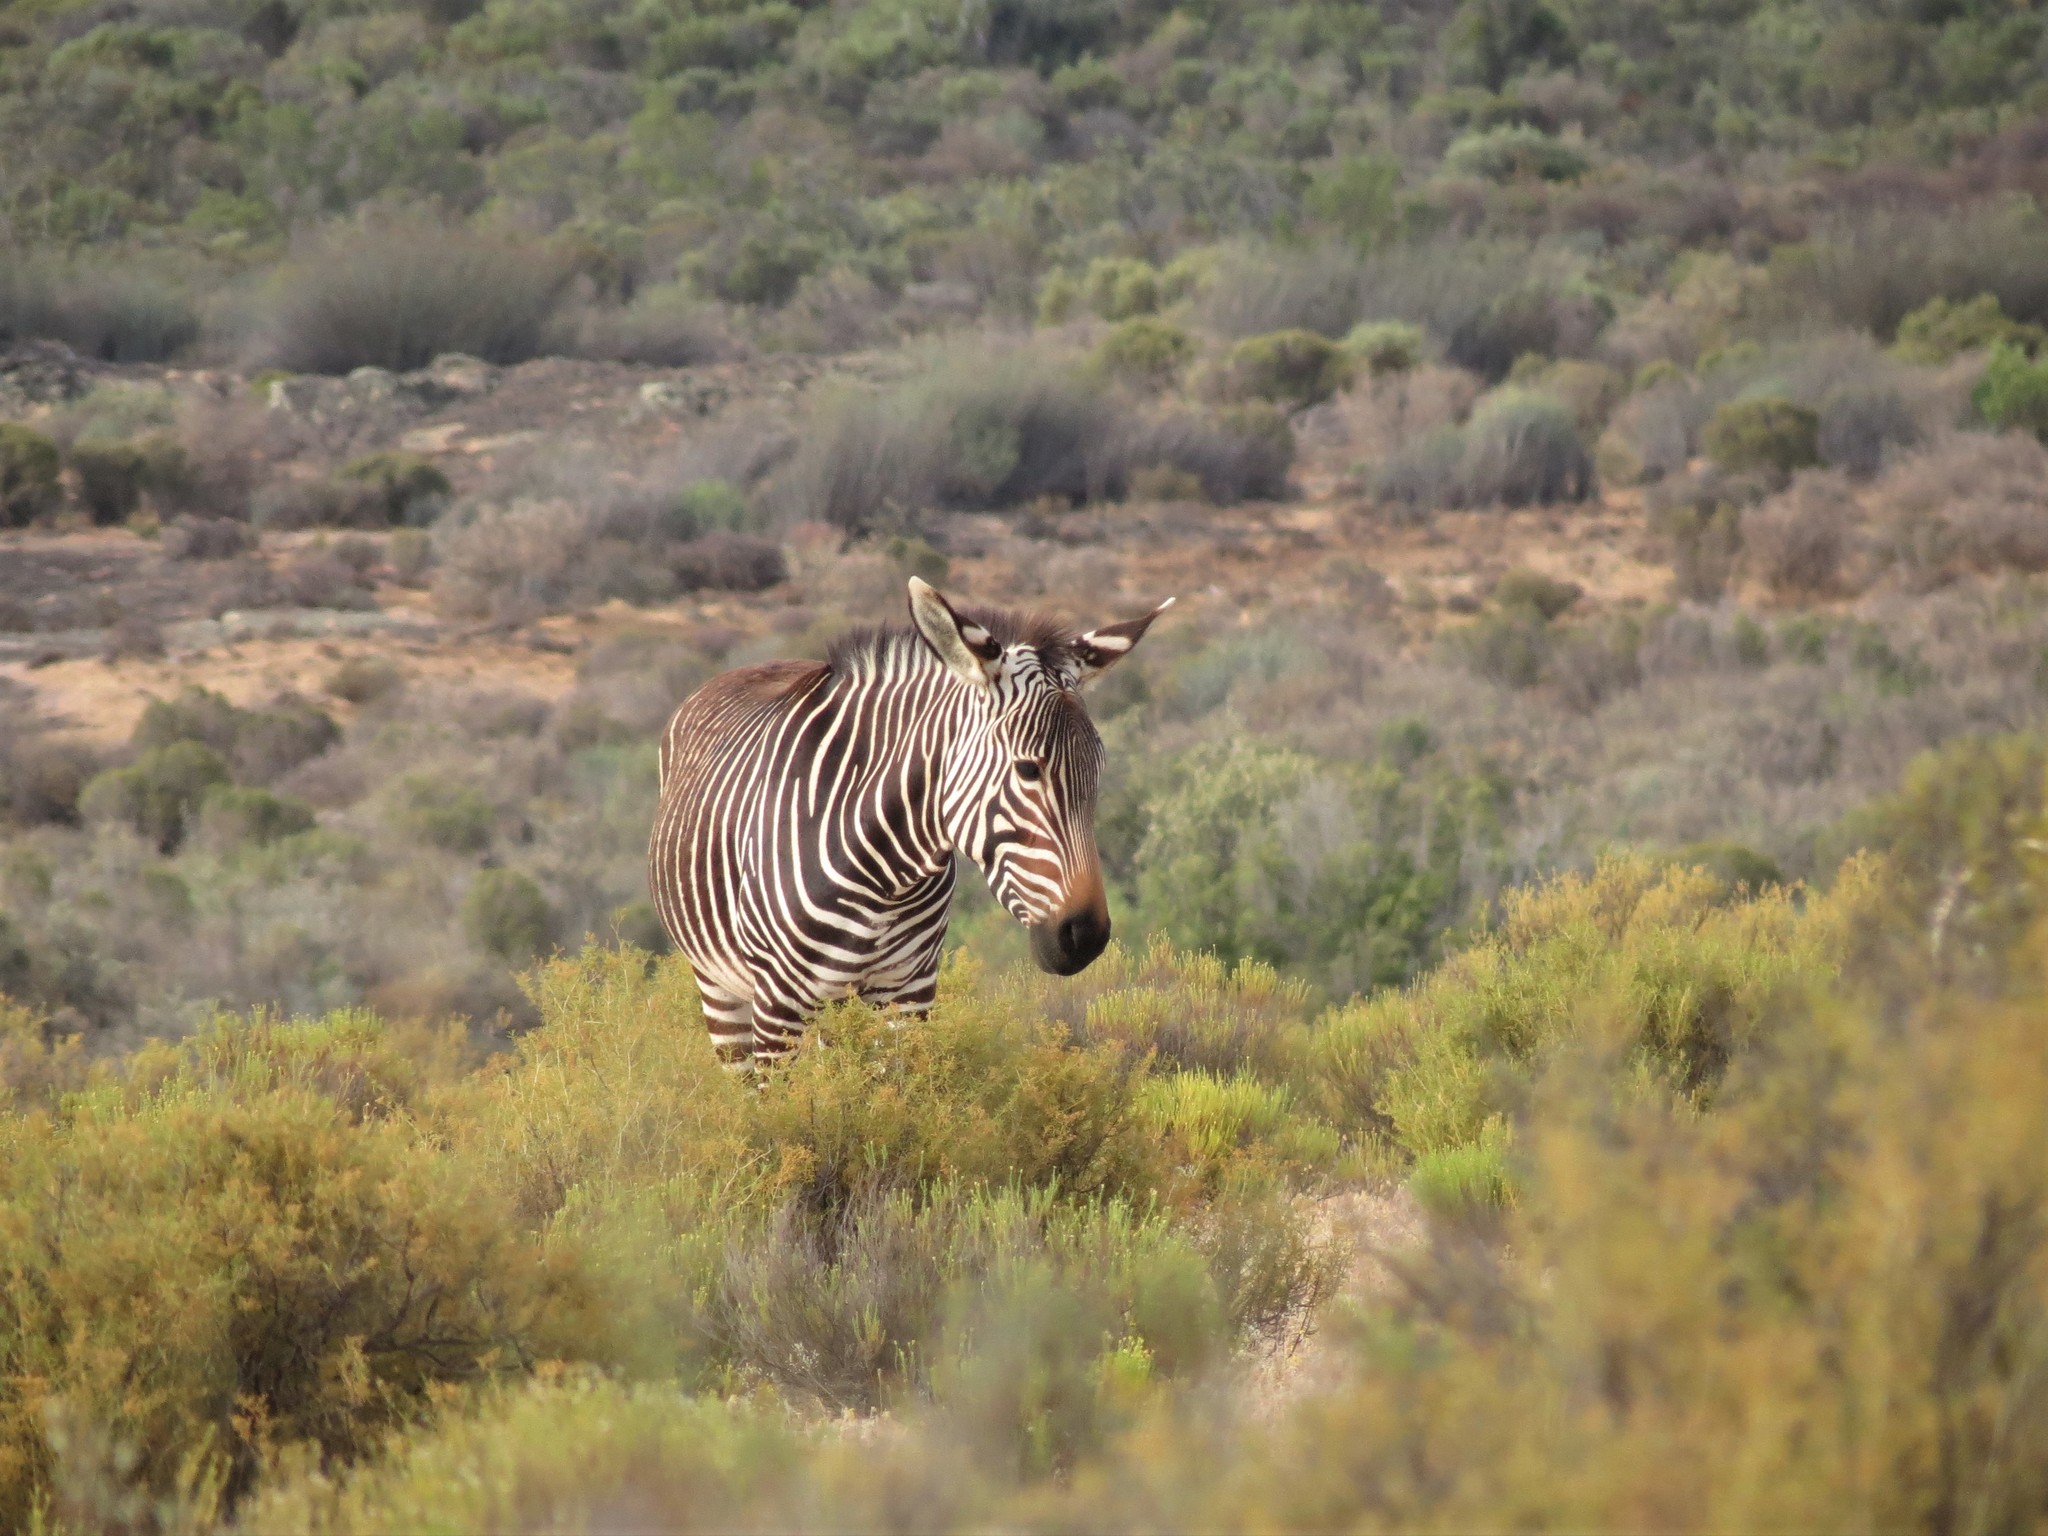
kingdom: Animalia
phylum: Chordata
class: Mammalia
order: Perissodactyla
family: Equidae
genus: Equus
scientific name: Equus zebra
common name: Mountain zebra
